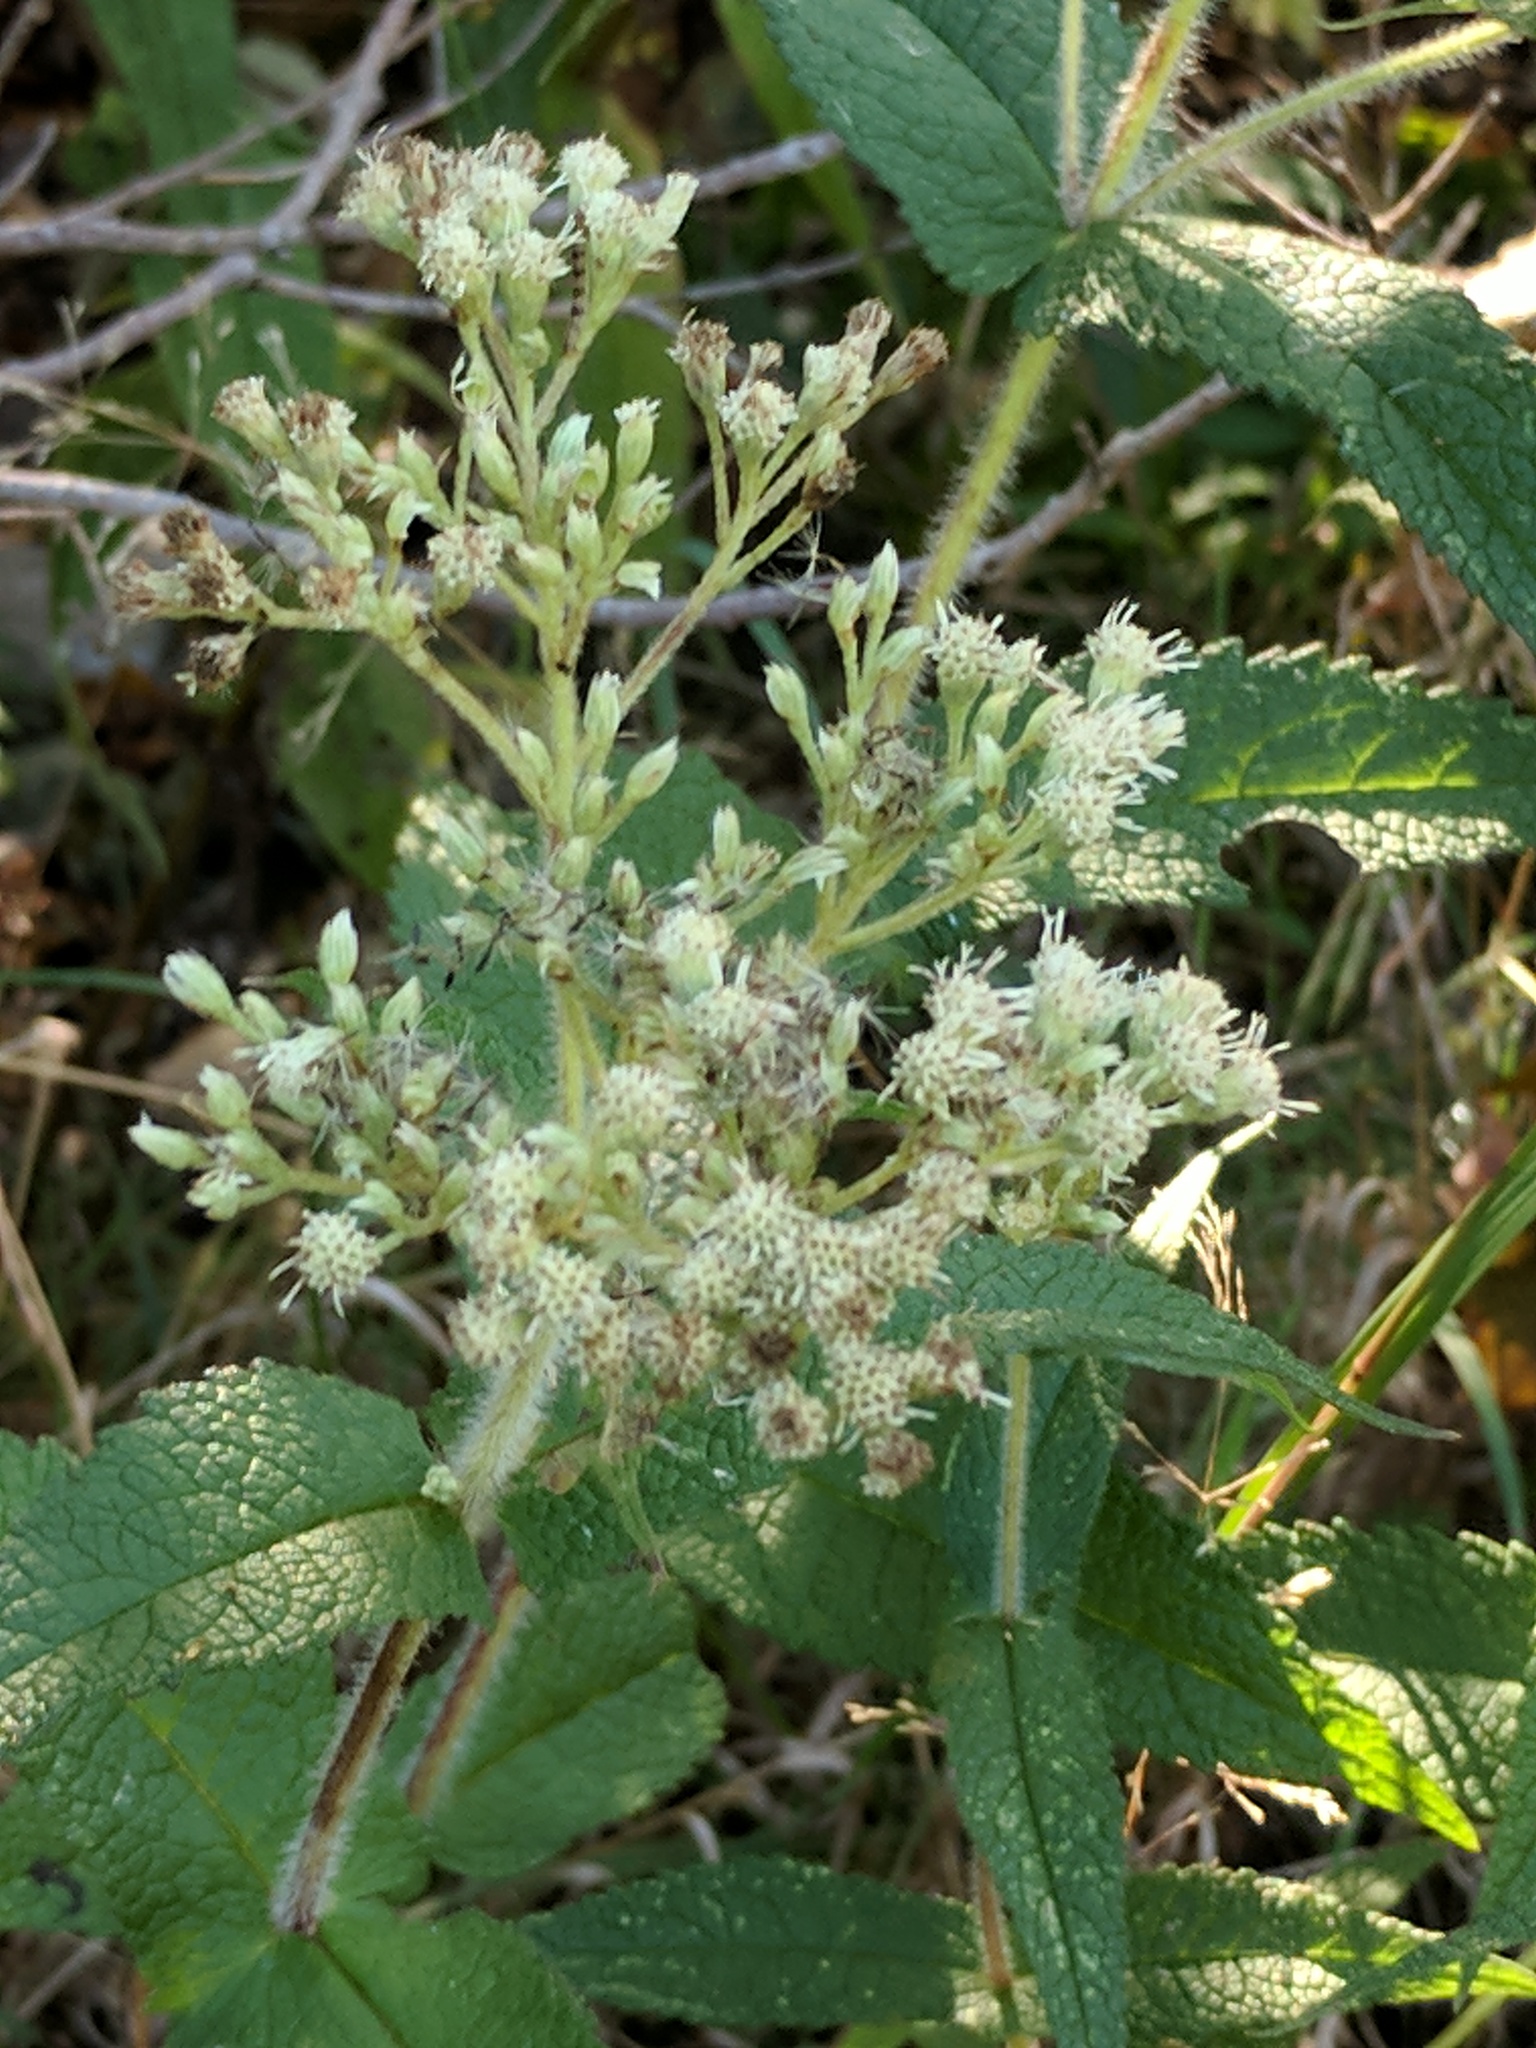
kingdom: Plantae
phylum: Tracheophyta
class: Magnoliopsida
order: Asterales
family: Asteraceae
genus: Eupatorium
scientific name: Eupatorium perfoliatum
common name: Boneset
